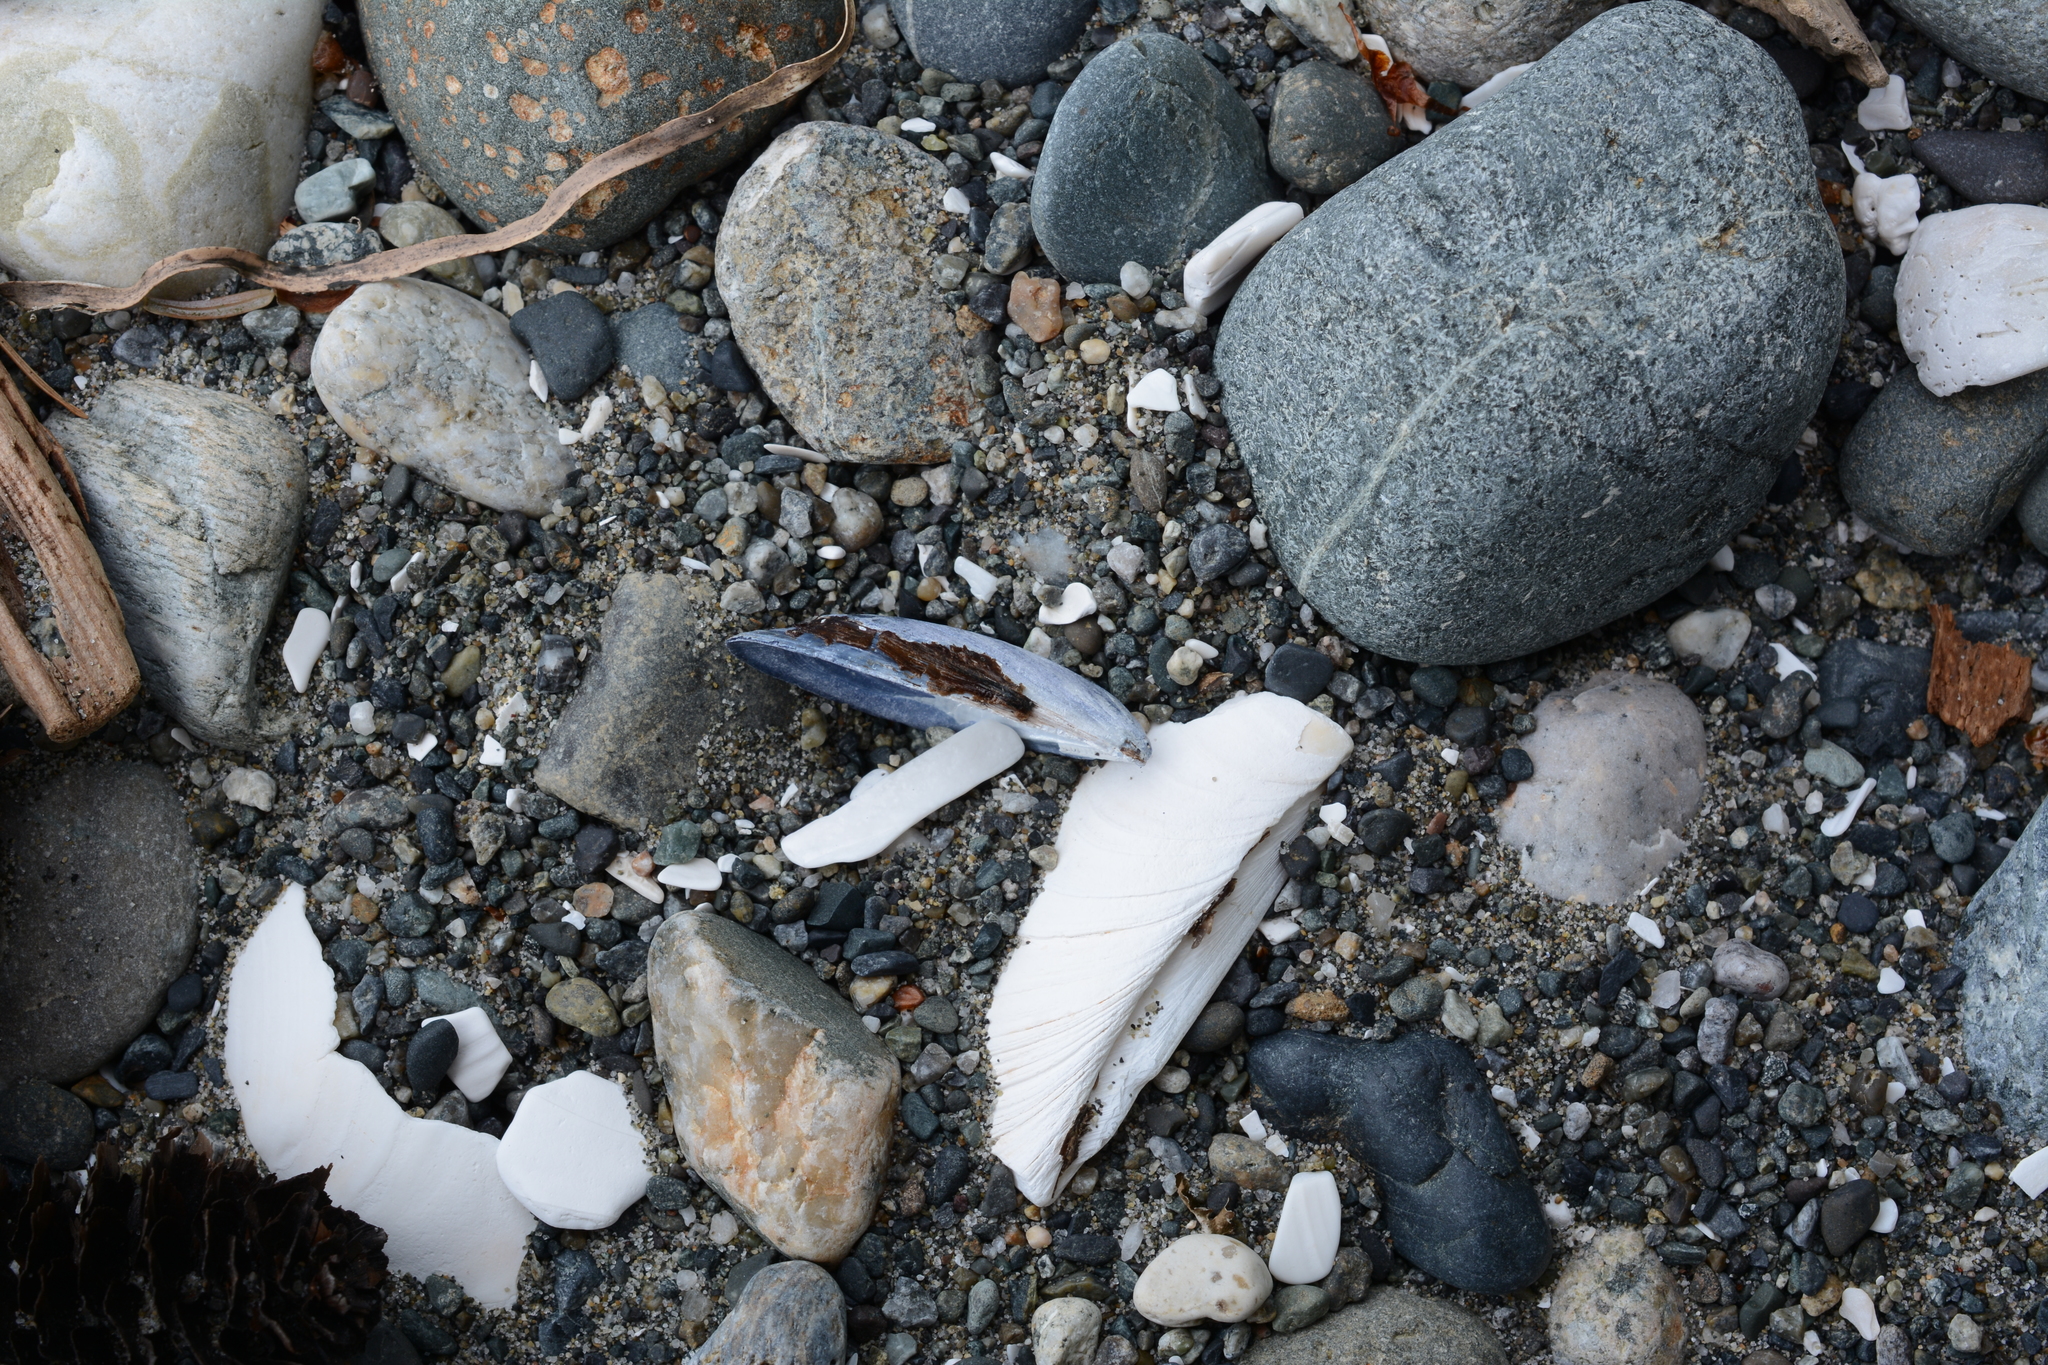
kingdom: Animalia
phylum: Mollusca
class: Bivalvia
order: Mytilida
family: Mytilidae
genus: Mytilus
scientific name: Mytilus
